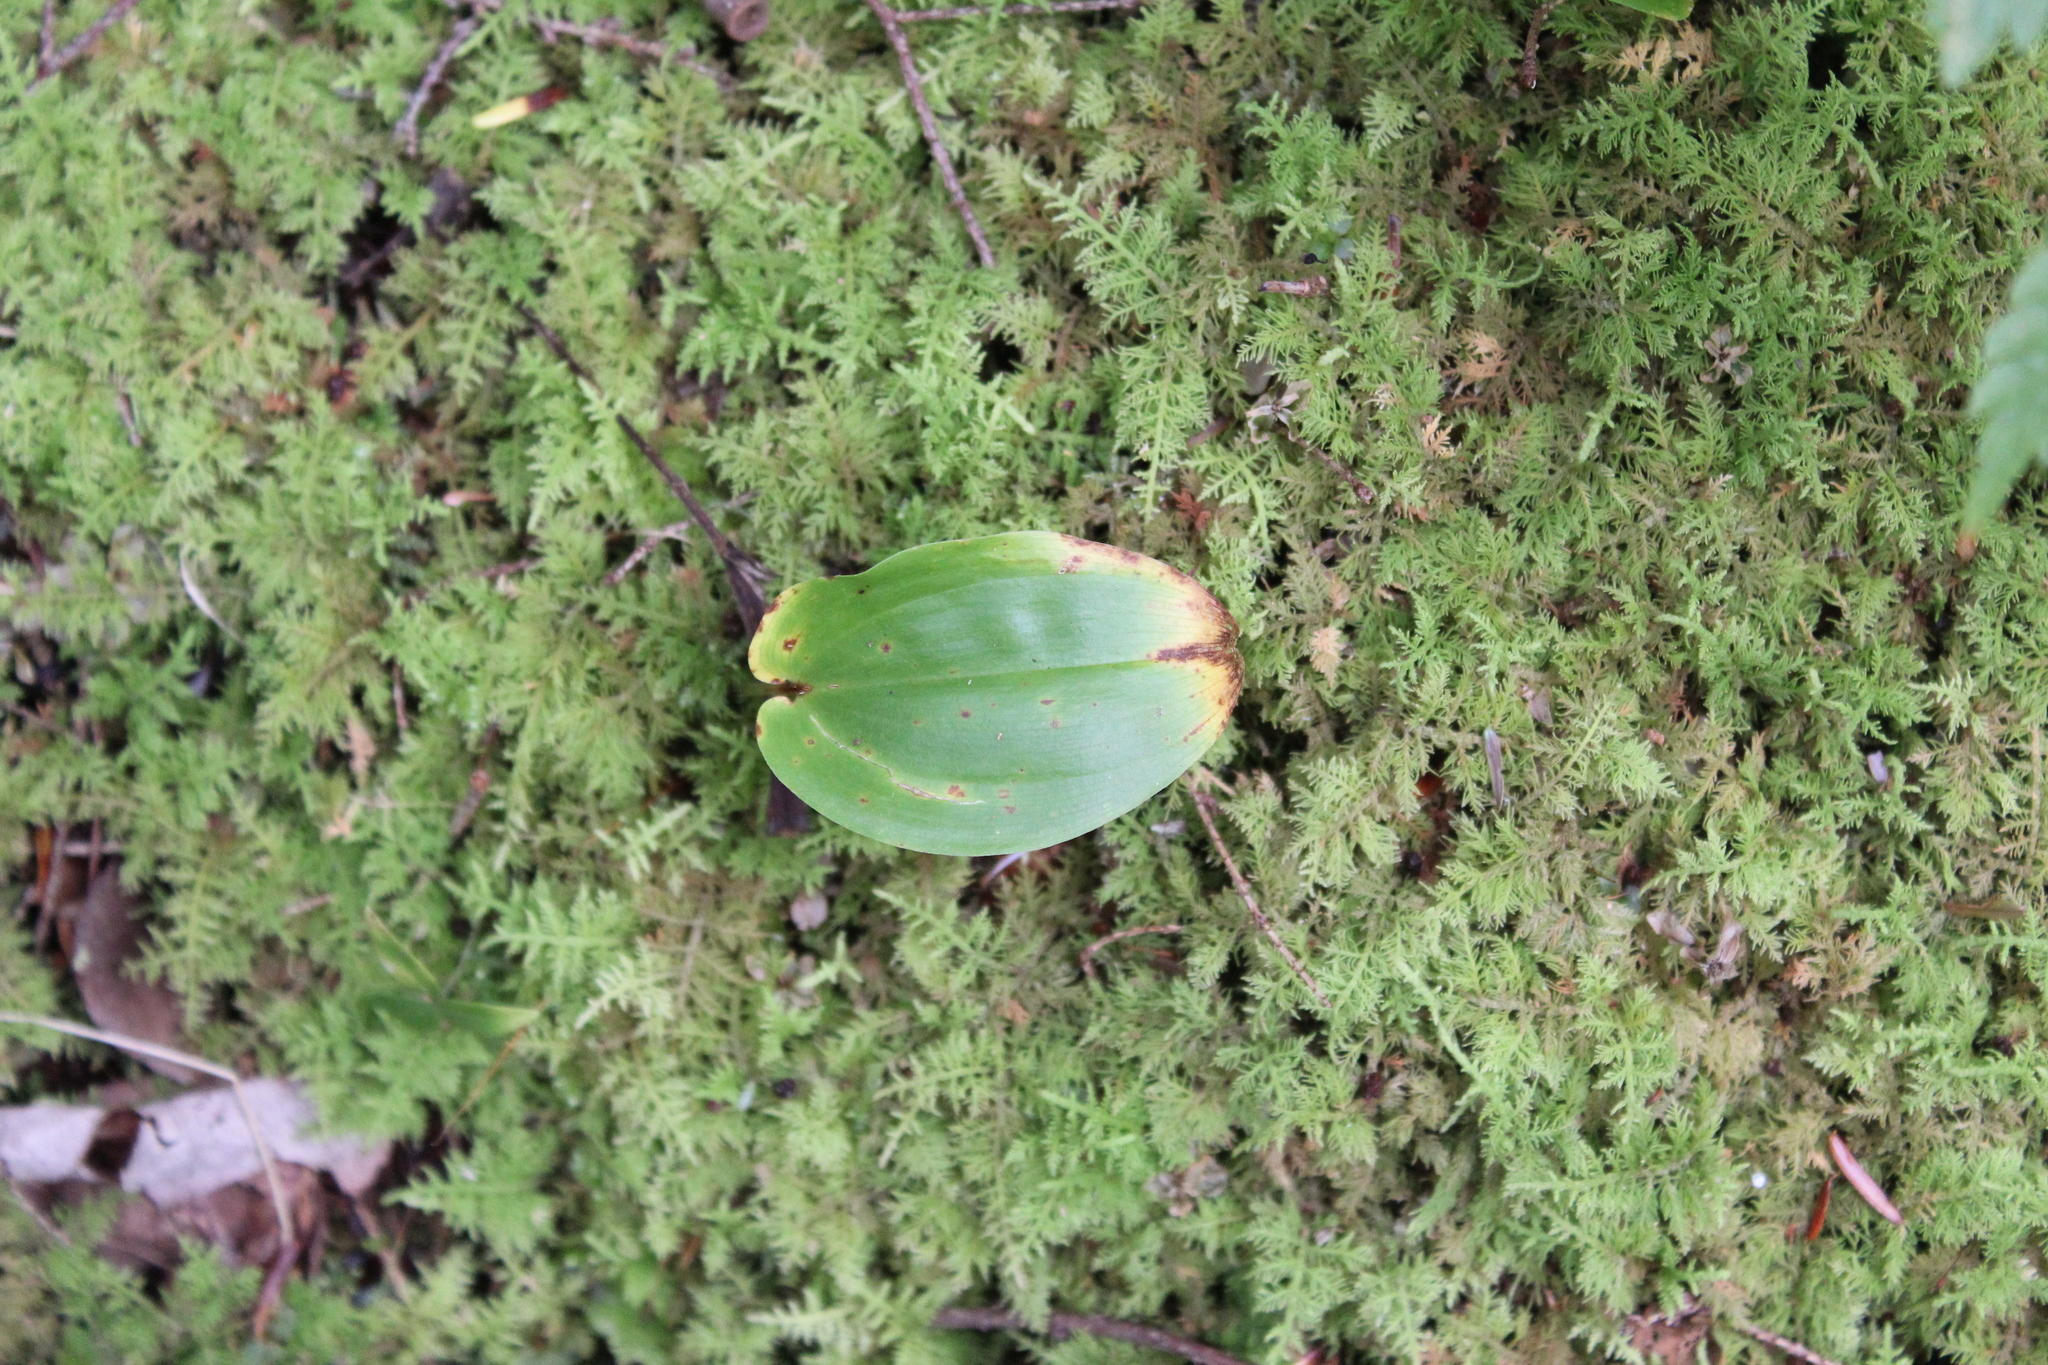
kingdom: Plantae
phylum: Tracheophyta
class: Liliopsida
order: Asparagales
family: Asparagaceae
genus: Maianthemum
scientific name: Maianthemum canadense
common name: False lily-of-the-valley
